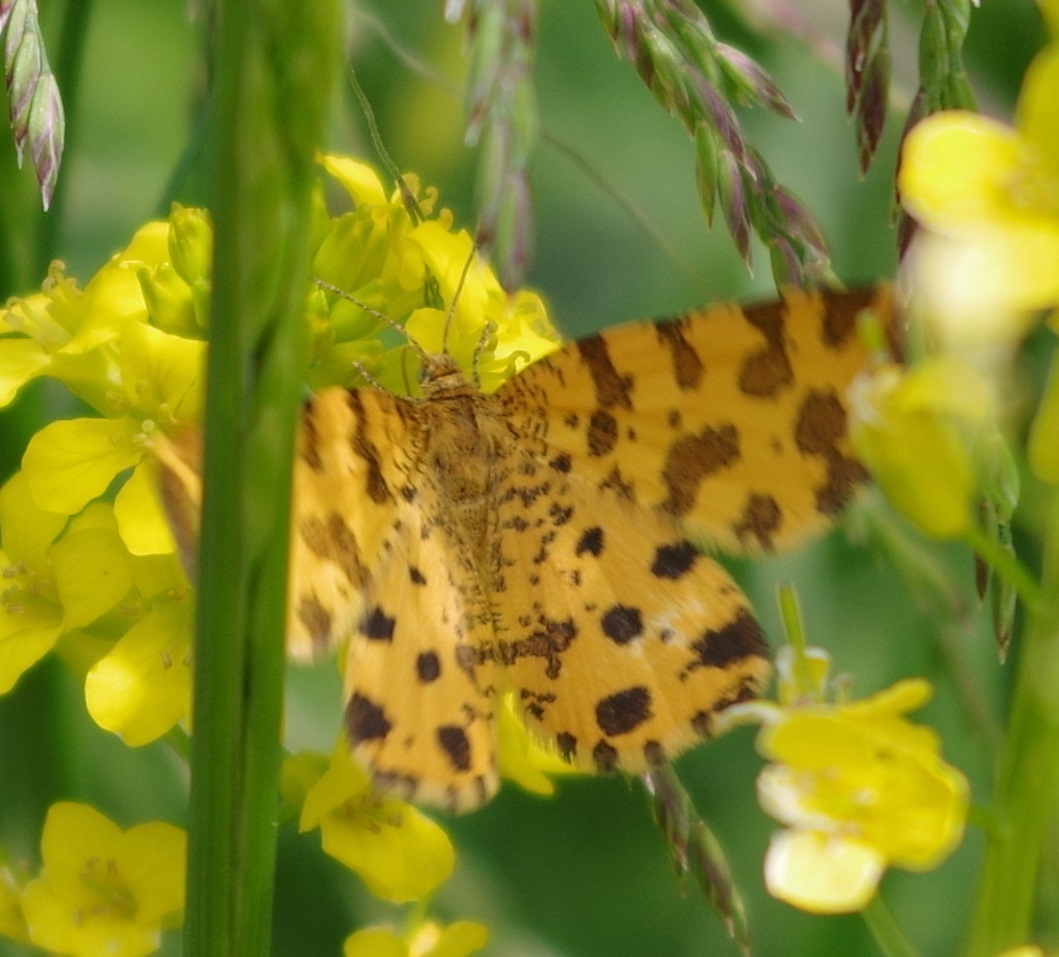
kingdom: Animalia
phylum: Arthropoda
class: Insecta
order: Lepidoptera
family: Geometridae
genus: Pseudopanthera
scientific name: Pseudopanthera macularia
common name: Speckled yellow
